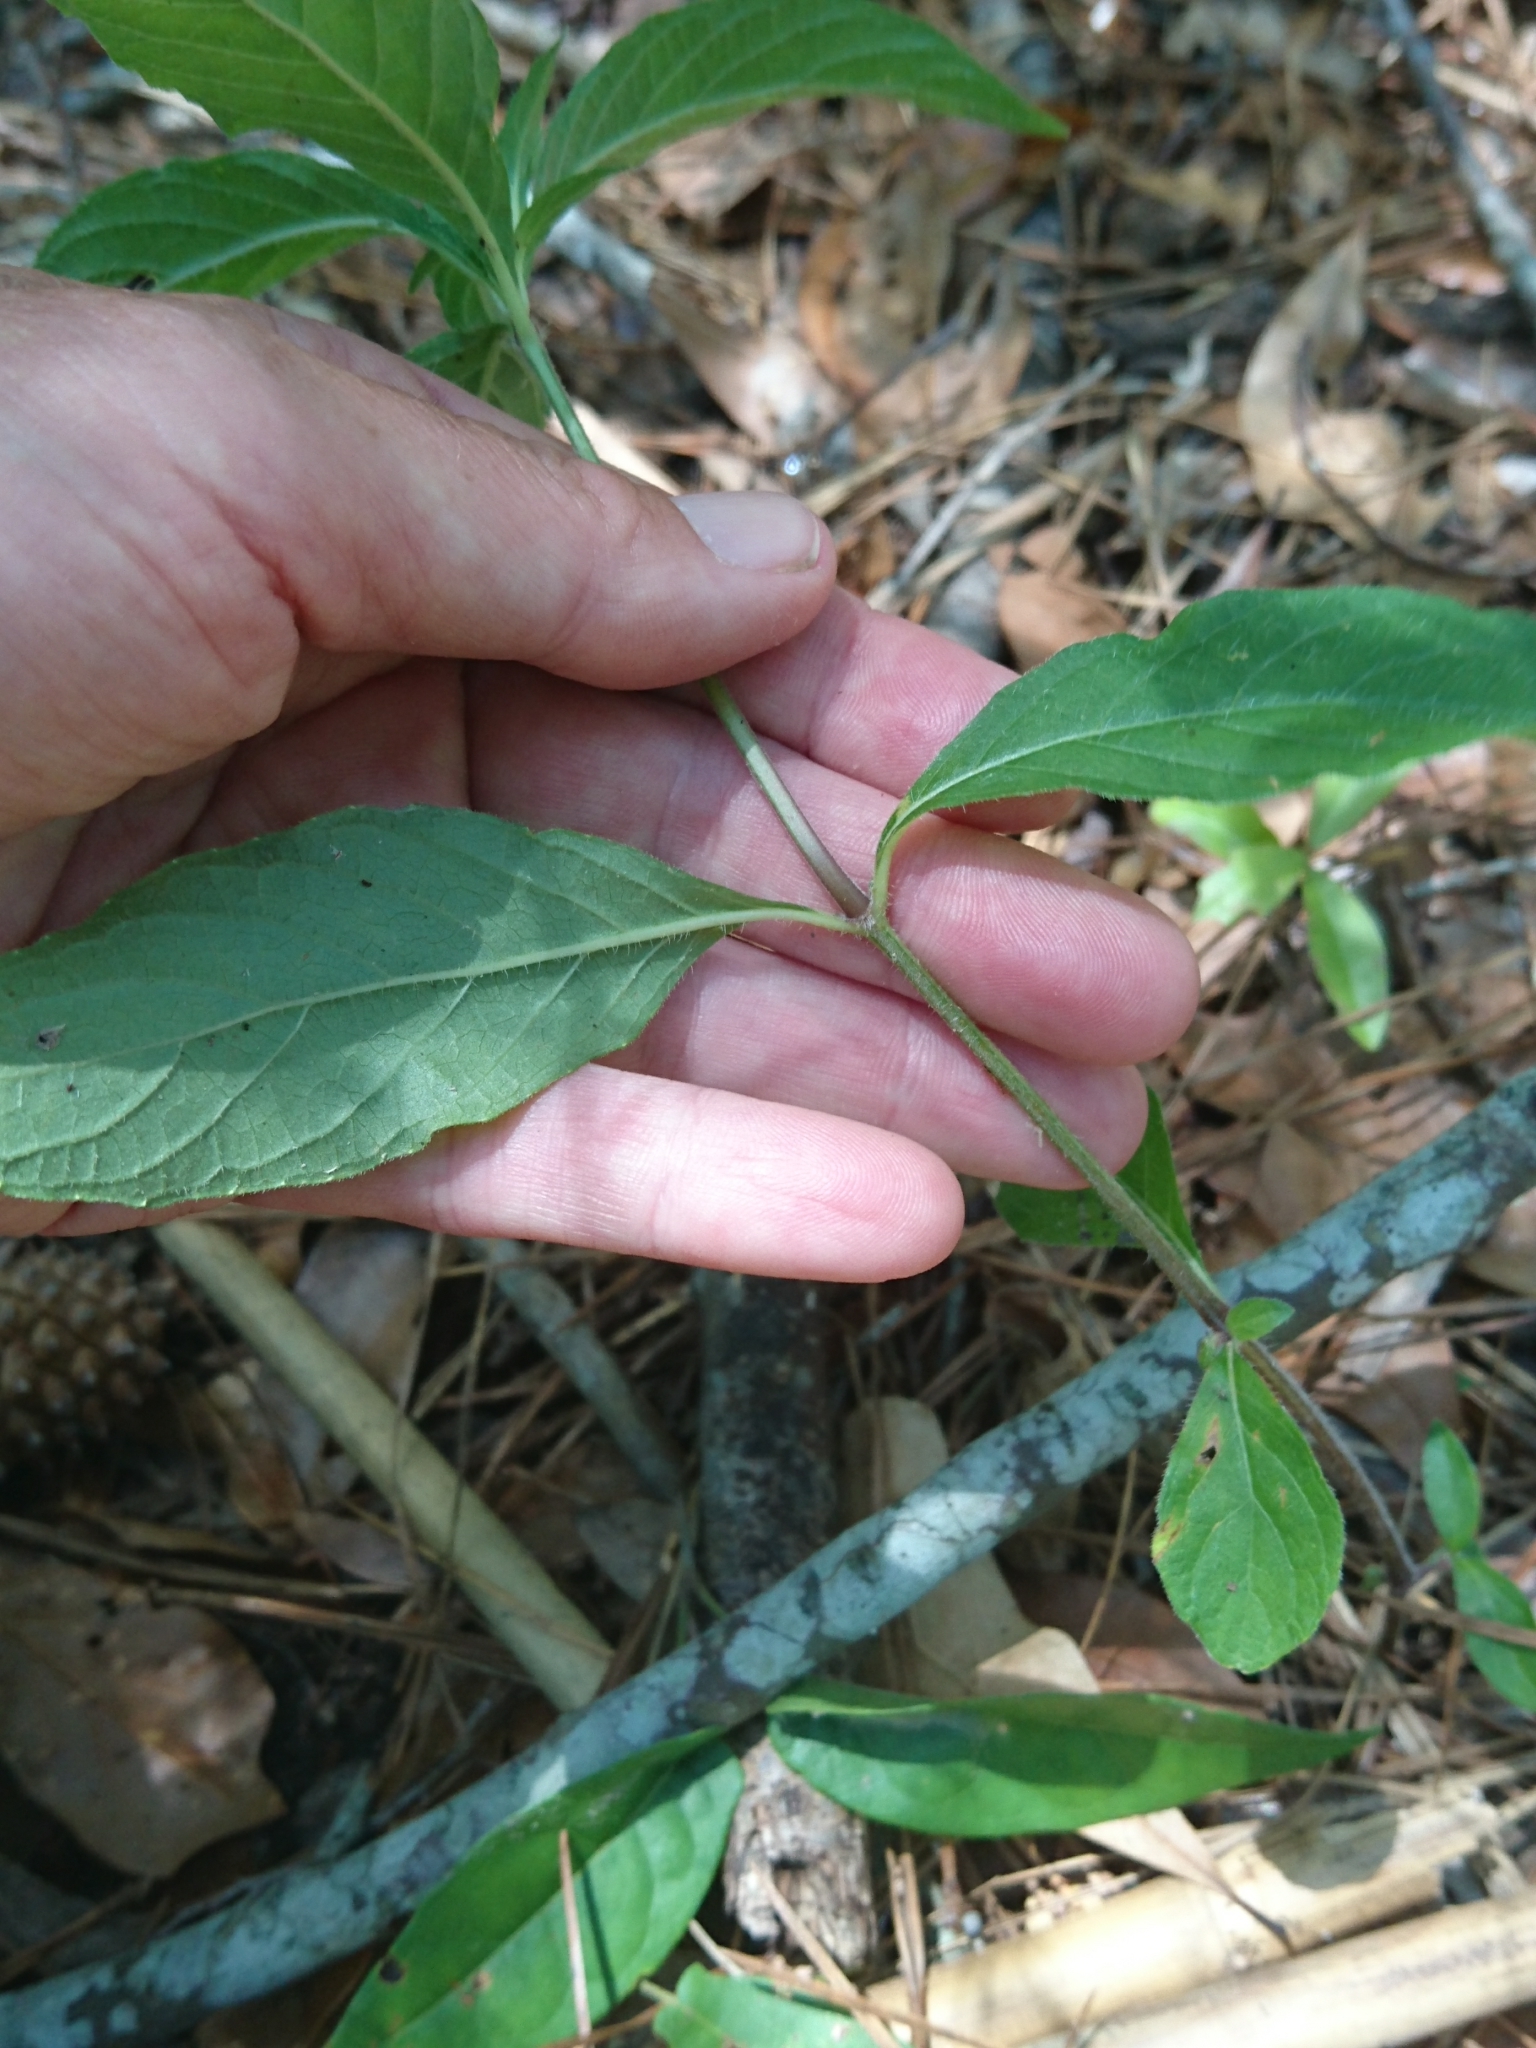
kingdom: Plantae
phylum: Tracheophyta
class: Magnoliopsida
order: Lamiales
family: Acanthaceae
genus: Ruellia
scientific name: Ruellia caroliniensis
